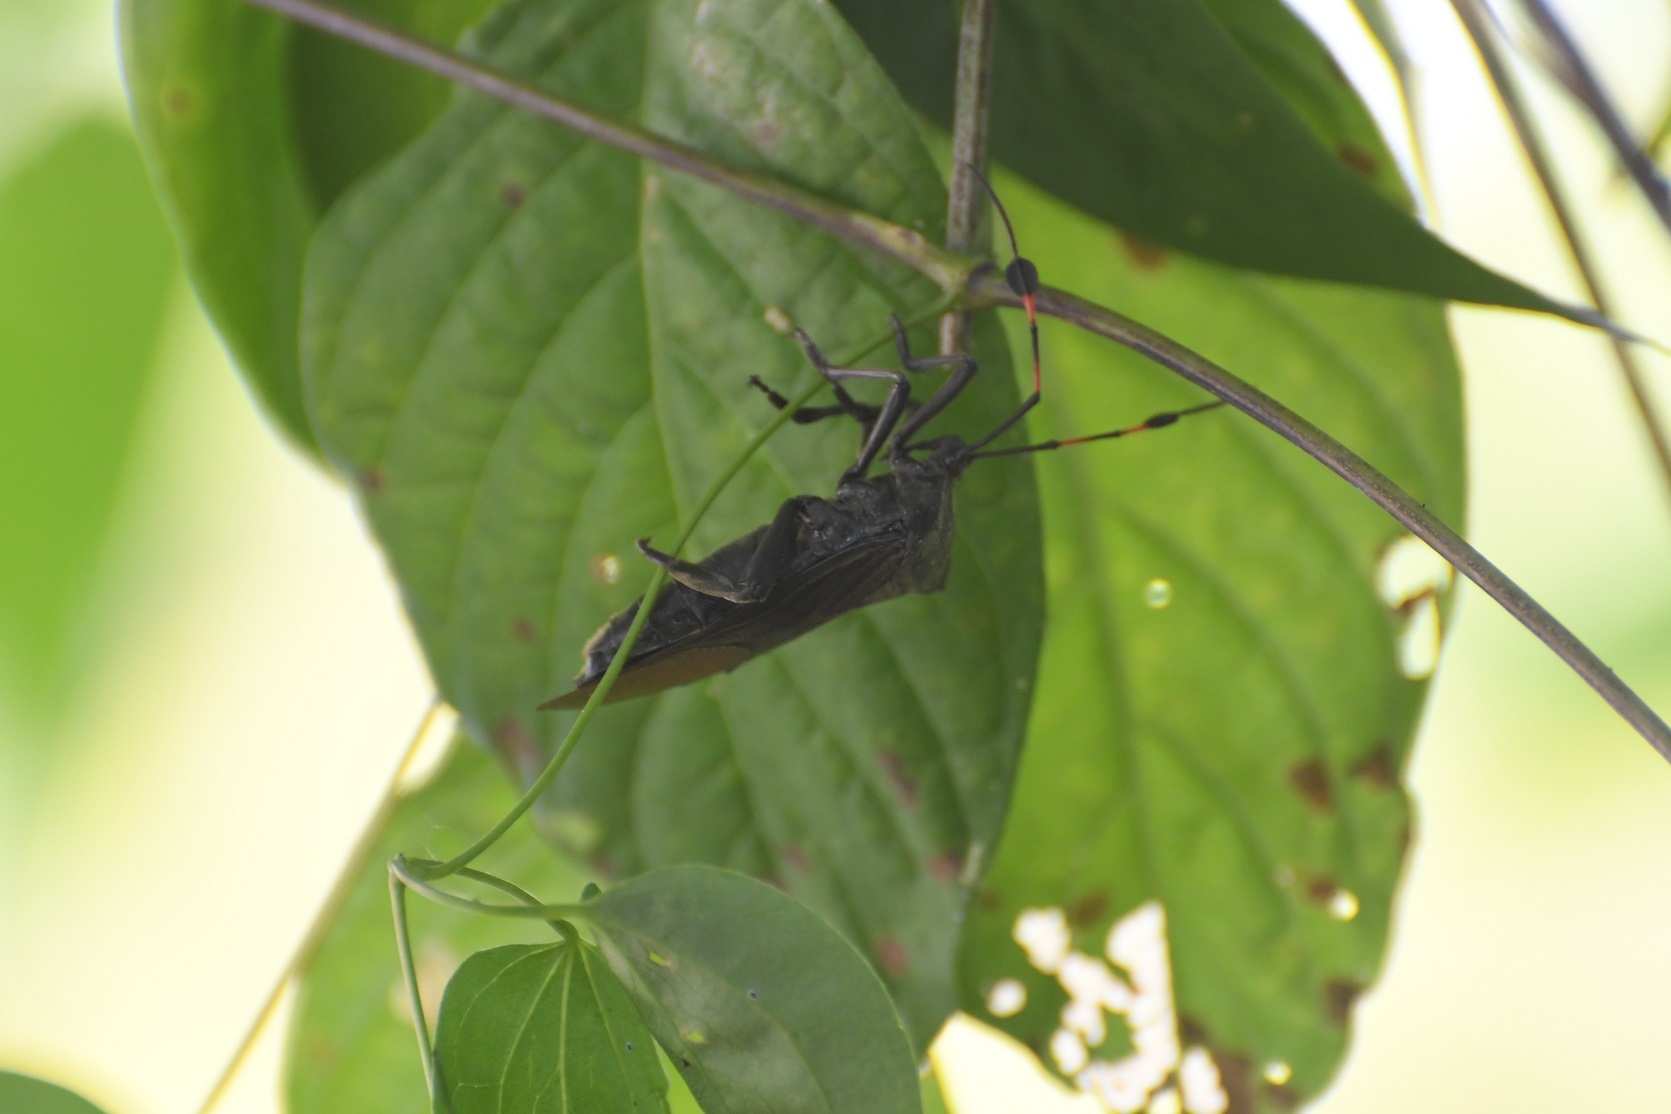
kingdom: Animalia
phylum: Arthropoda
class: Insecta
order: Hemiptera
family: Coreidae
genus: Thasus
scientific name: Thasus acutangulus
